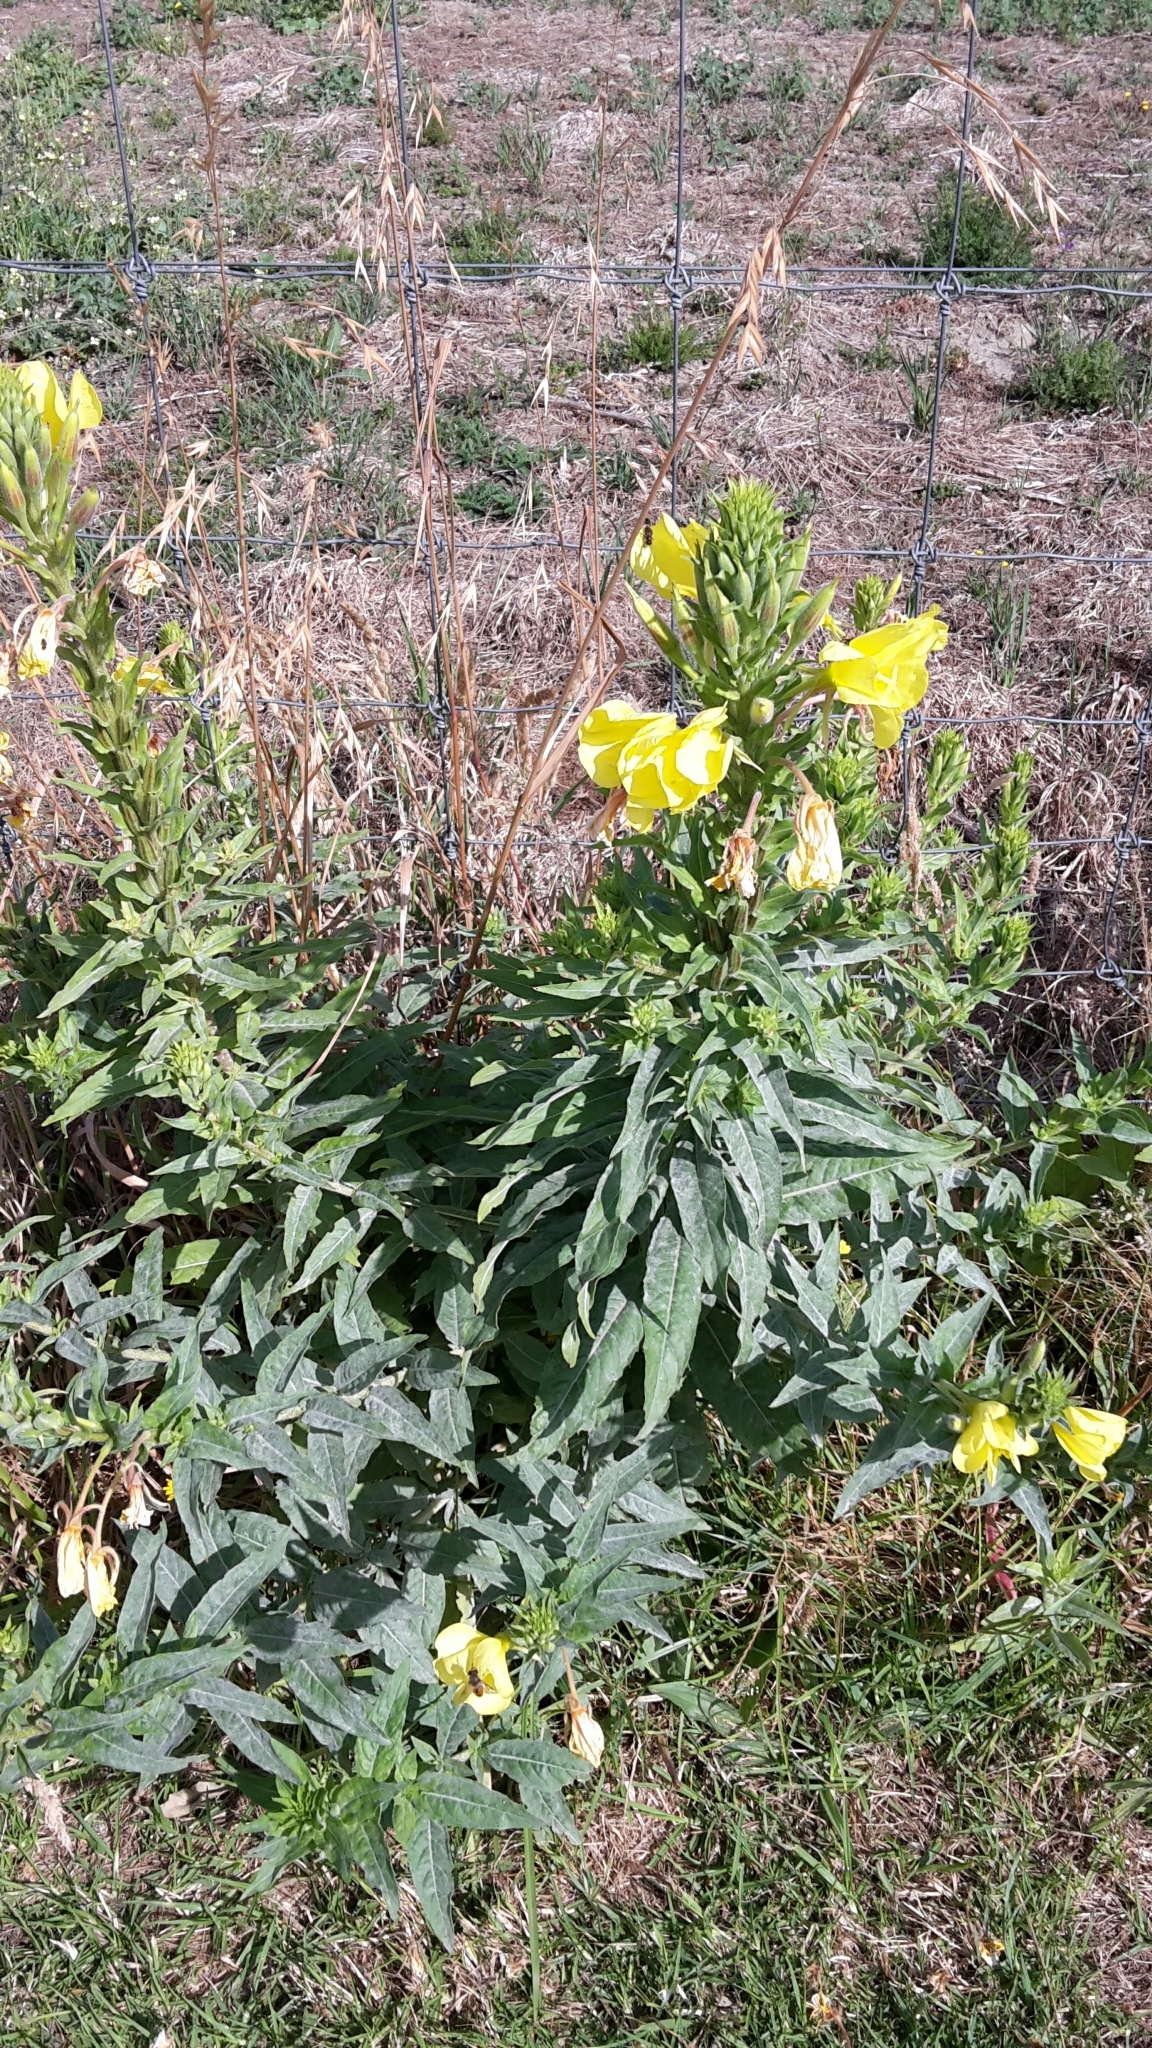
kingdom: Plantae
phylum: Tracheophyta
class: Magnoliopsida
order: Myrtales
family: Onagraceae
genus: Oenothera
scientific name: Oenothera glazioviana
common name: Large-flowered evening-primrose
